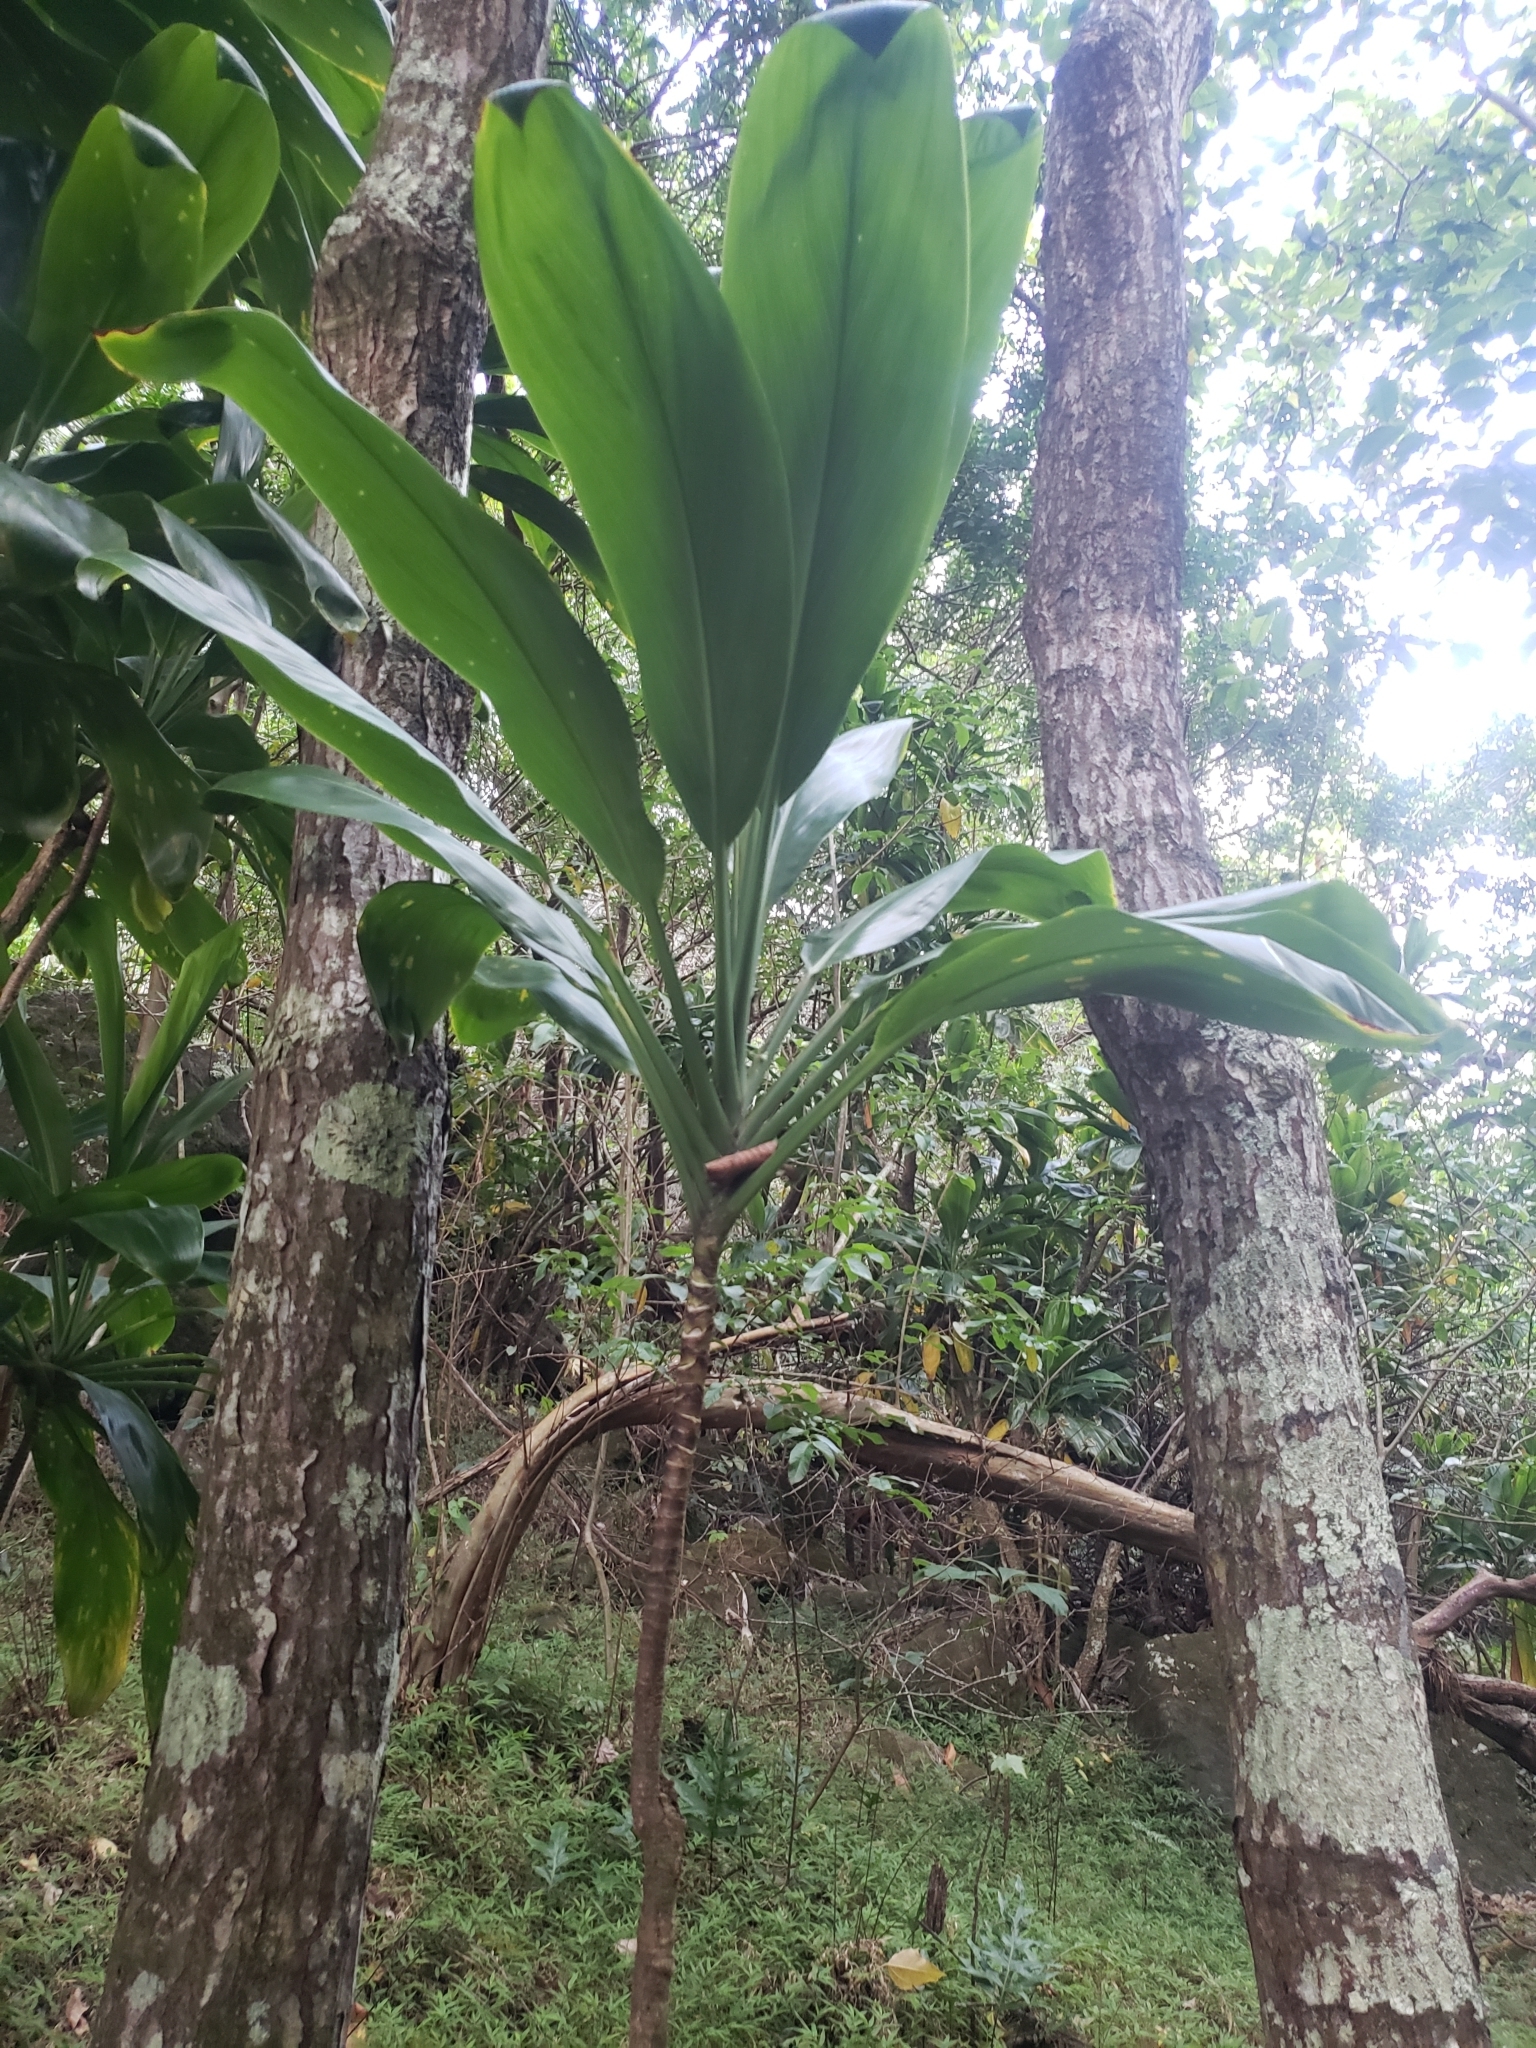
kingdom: Plantae
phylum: Tracheophyta
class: Liliopsida
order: Asparagales
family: Asparagaceae
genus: Cordyline
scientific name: Cordyline fruticosa
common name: Good-luck-plant
